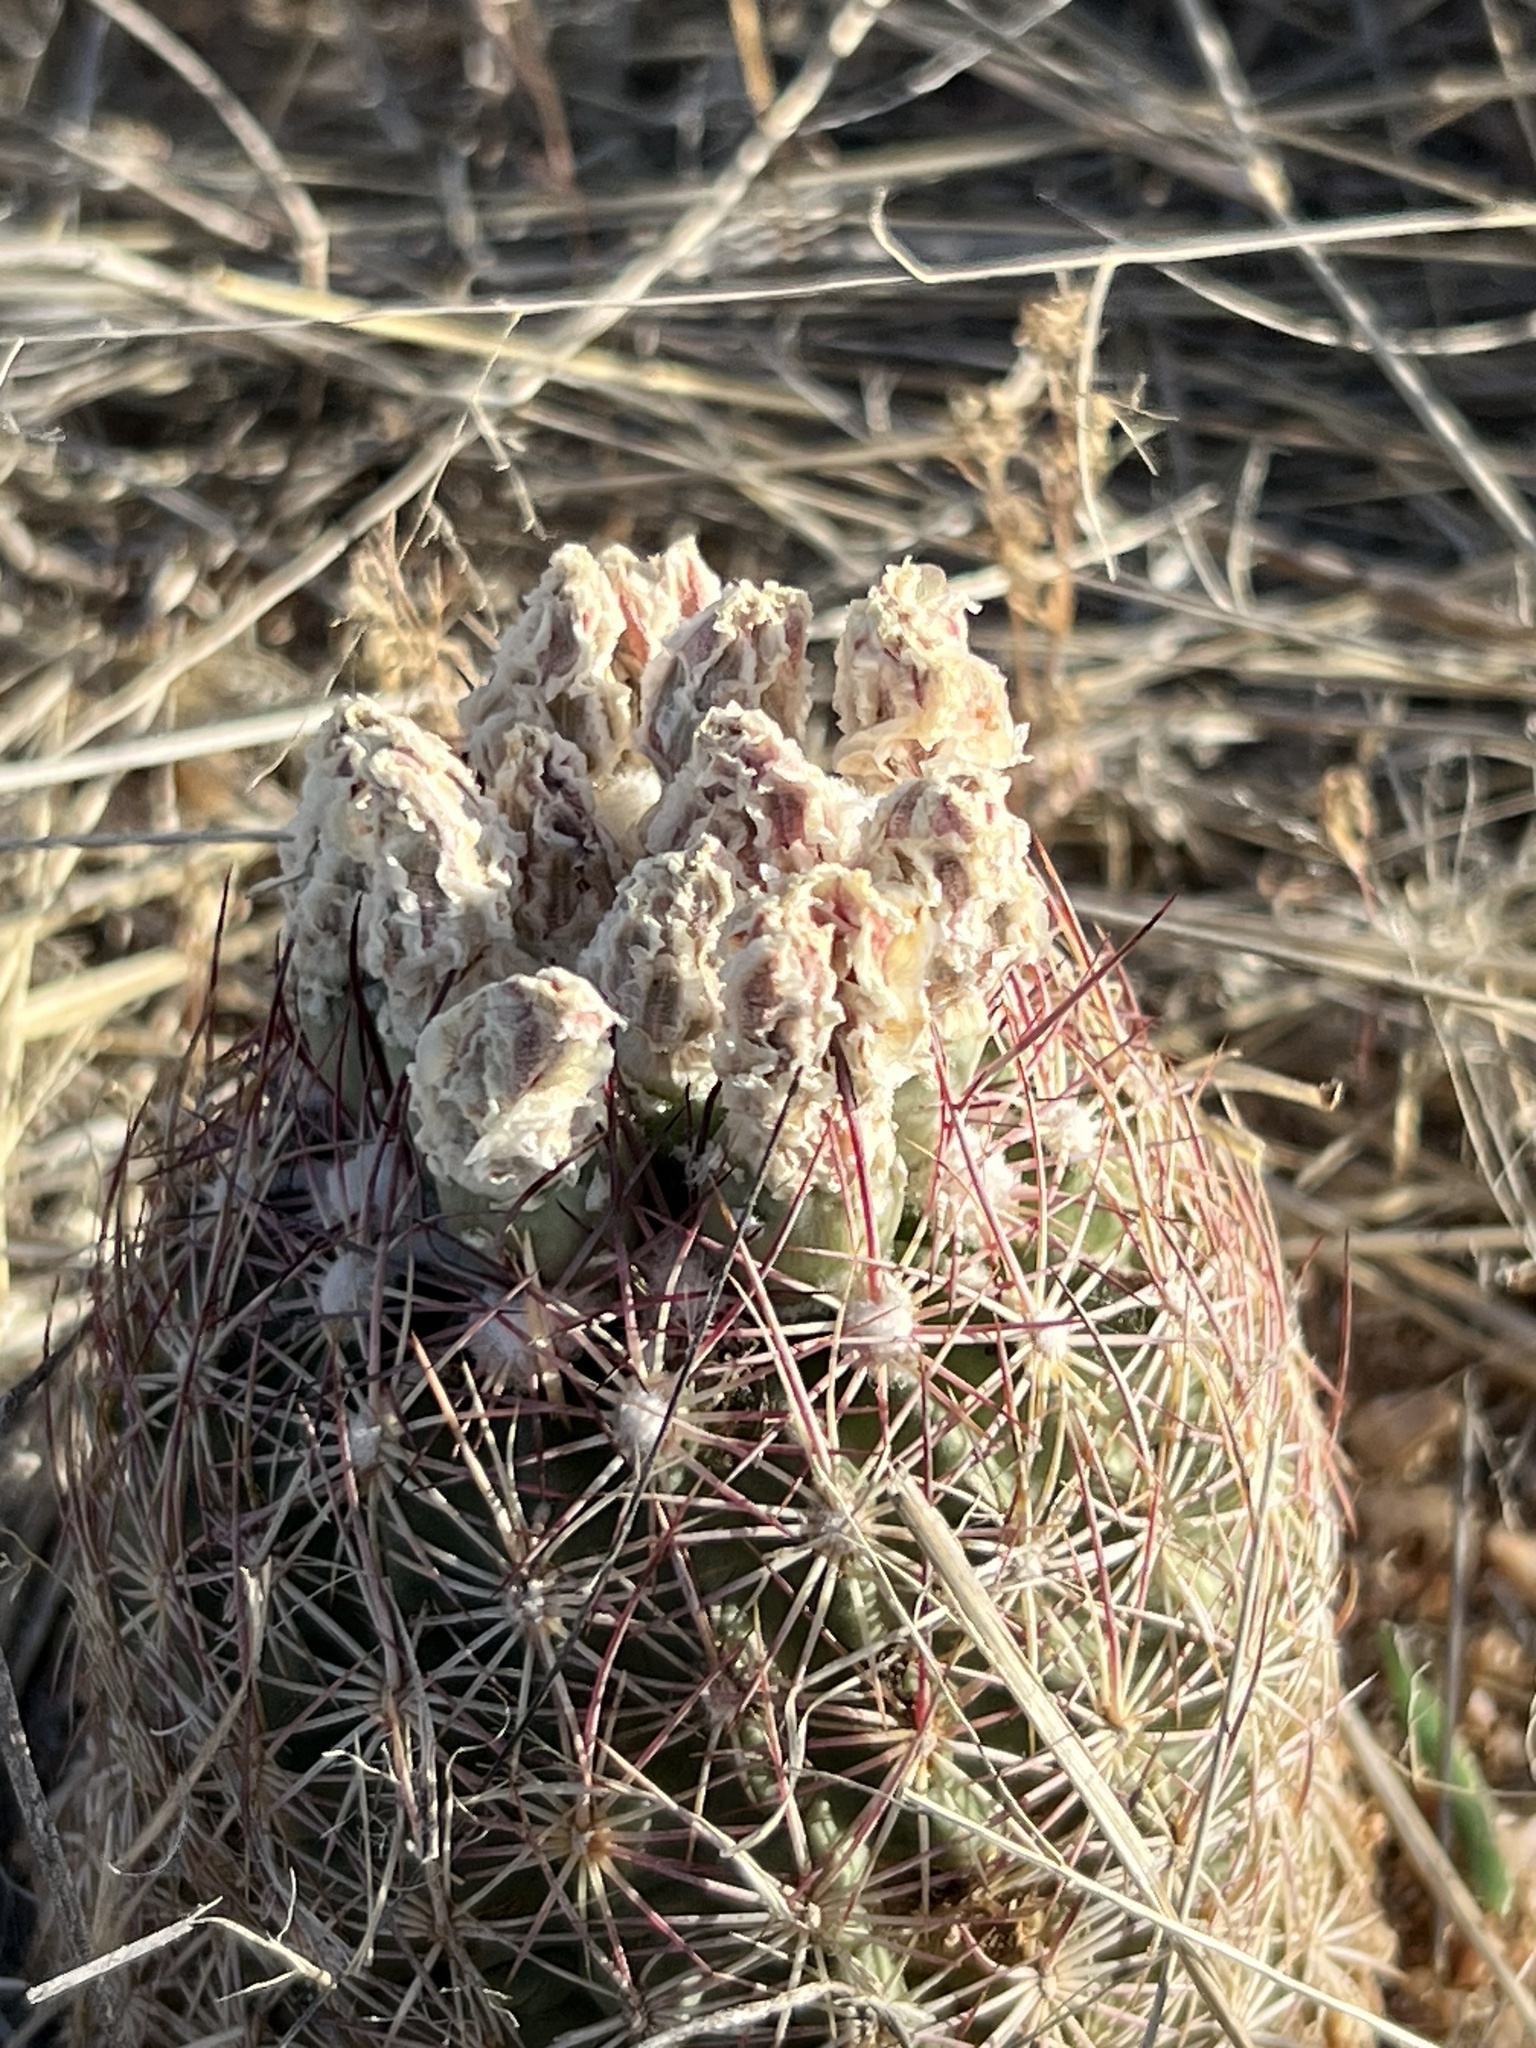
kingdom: Plantae
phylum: Tracheophyta
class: Magnoliopsida
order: Caryophyllales
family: Cactaceae
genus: Sclerocactus
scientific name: Sclerocactus johnsonii
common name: Eight-spine fishhook cactus
